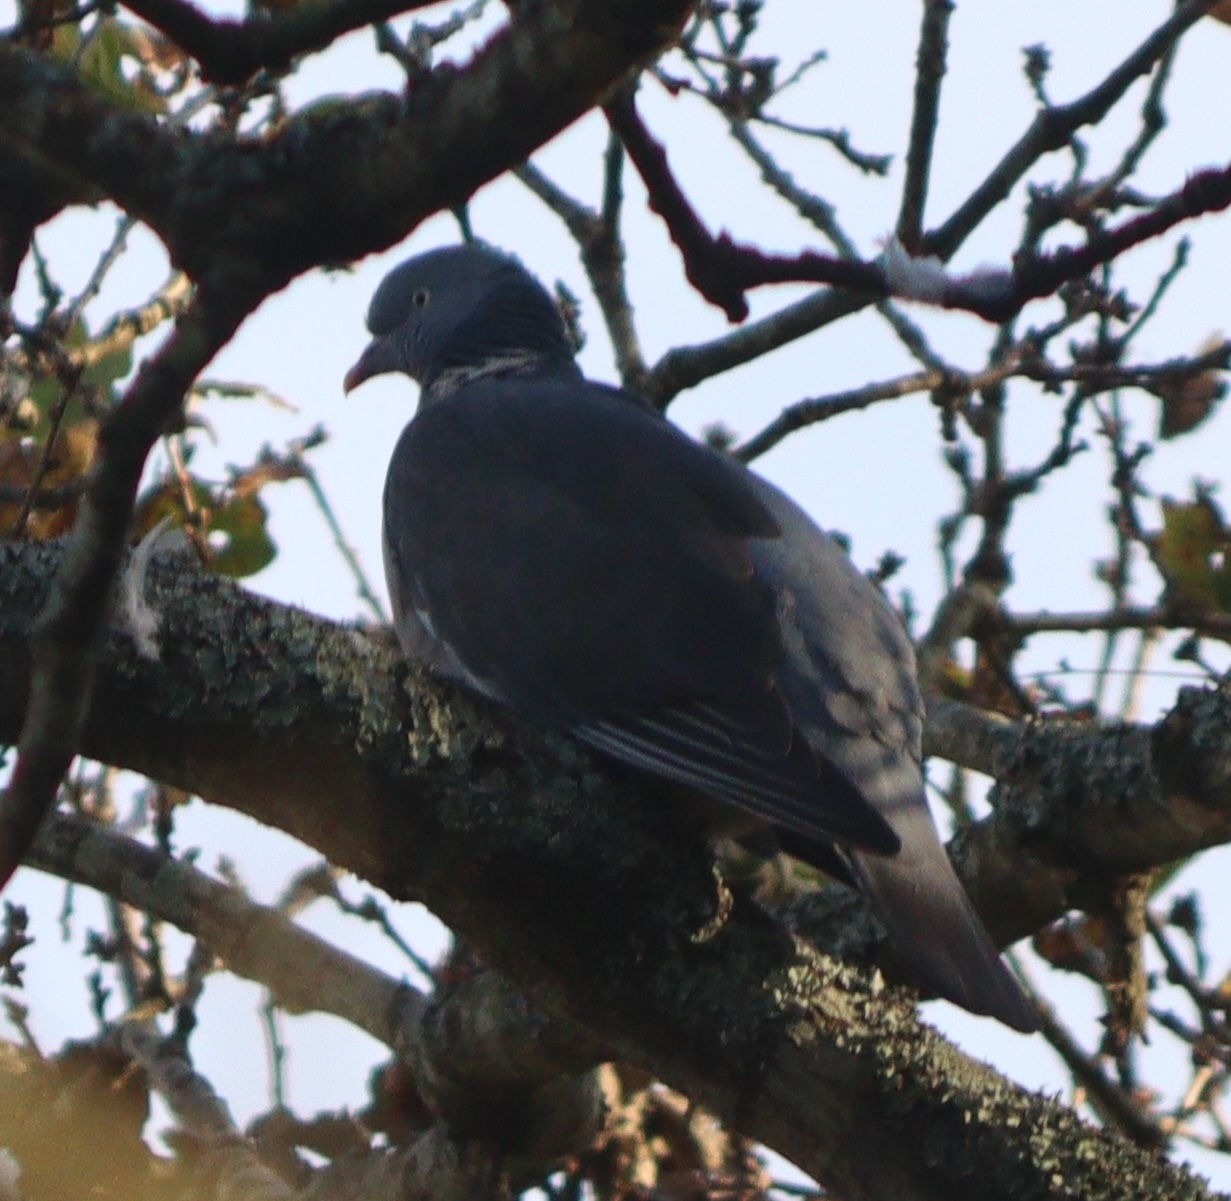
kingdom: Animalia
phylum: Chordata
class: Aves
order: Columbiformes
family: Columbidae
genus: Columba
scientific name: Columba palumbus
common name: Common wood pigeon
